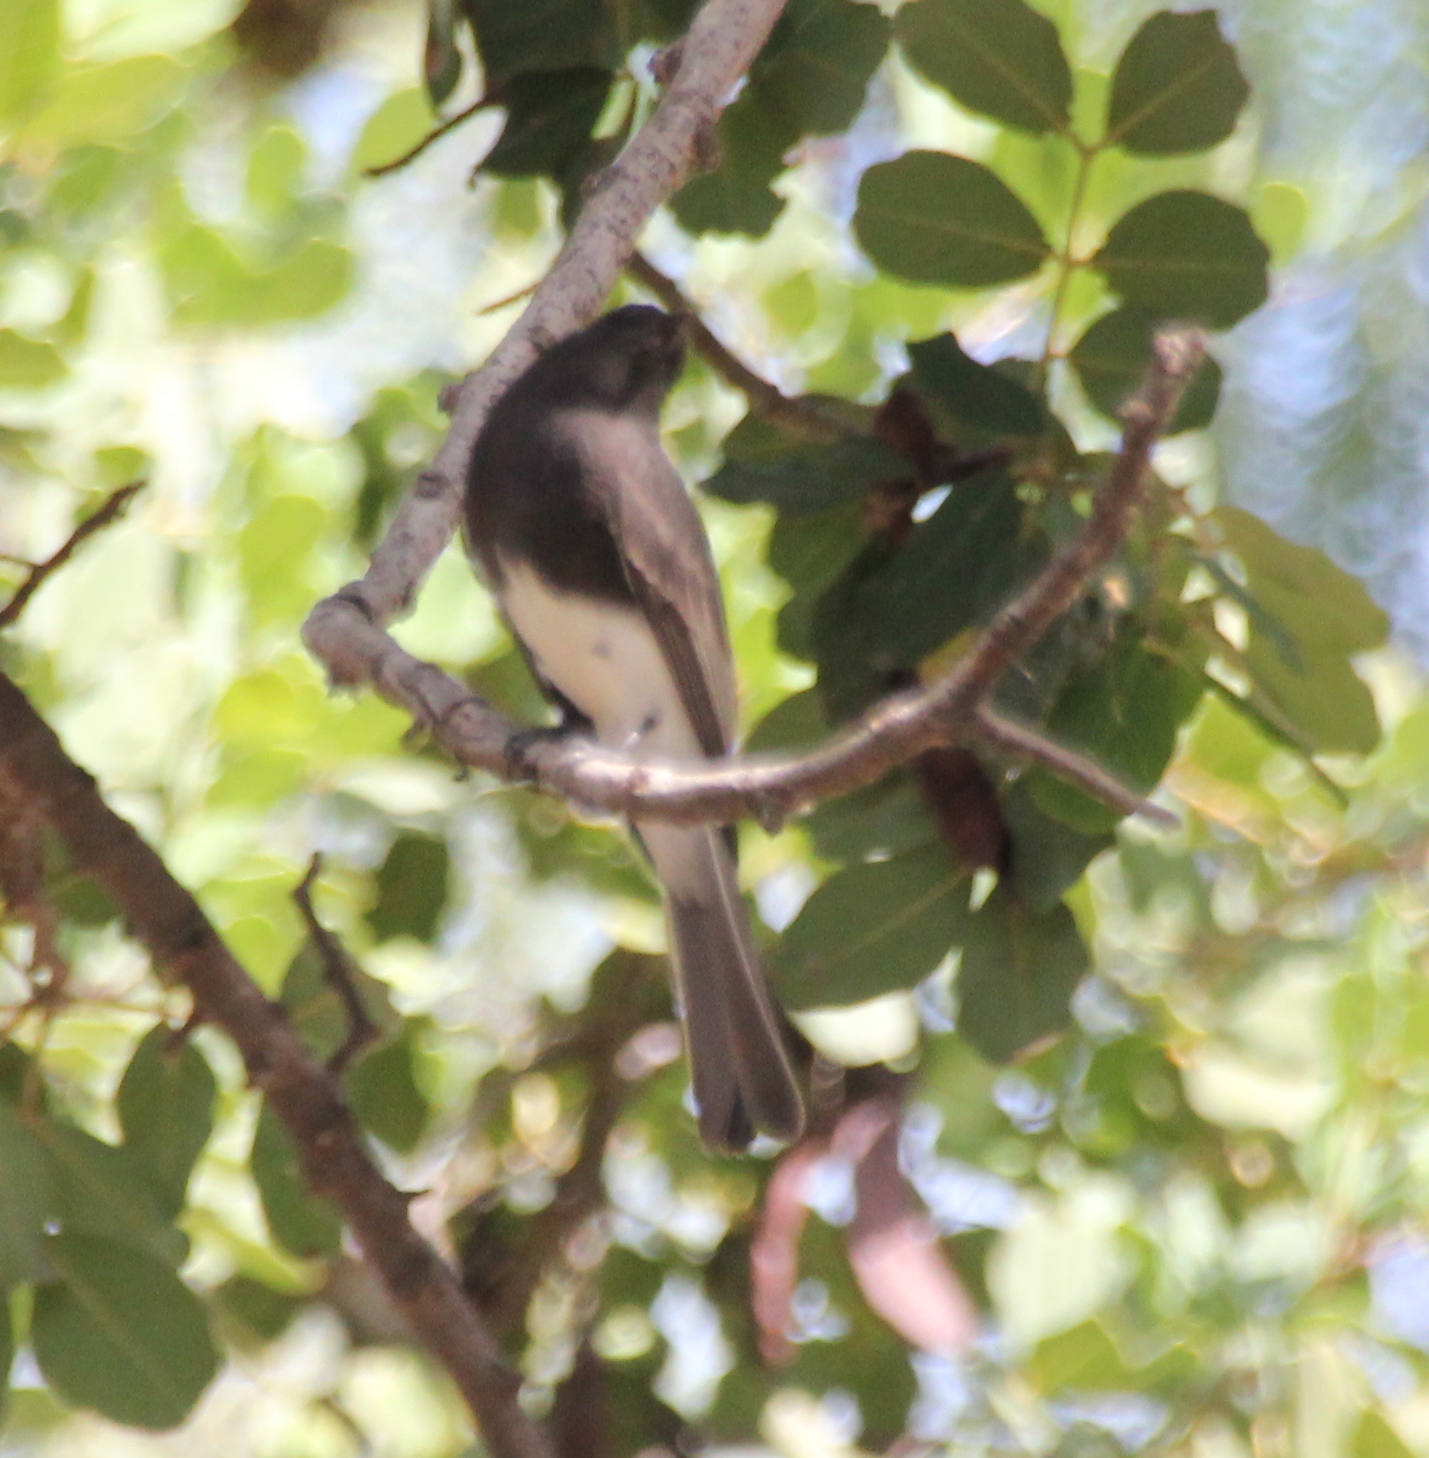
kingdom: Animalia
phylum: Chordata
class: Aves
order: Passeriformes
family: Tyrannidae
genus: Sayornis
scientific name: Sayornis nigricans
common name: Black phoebe
